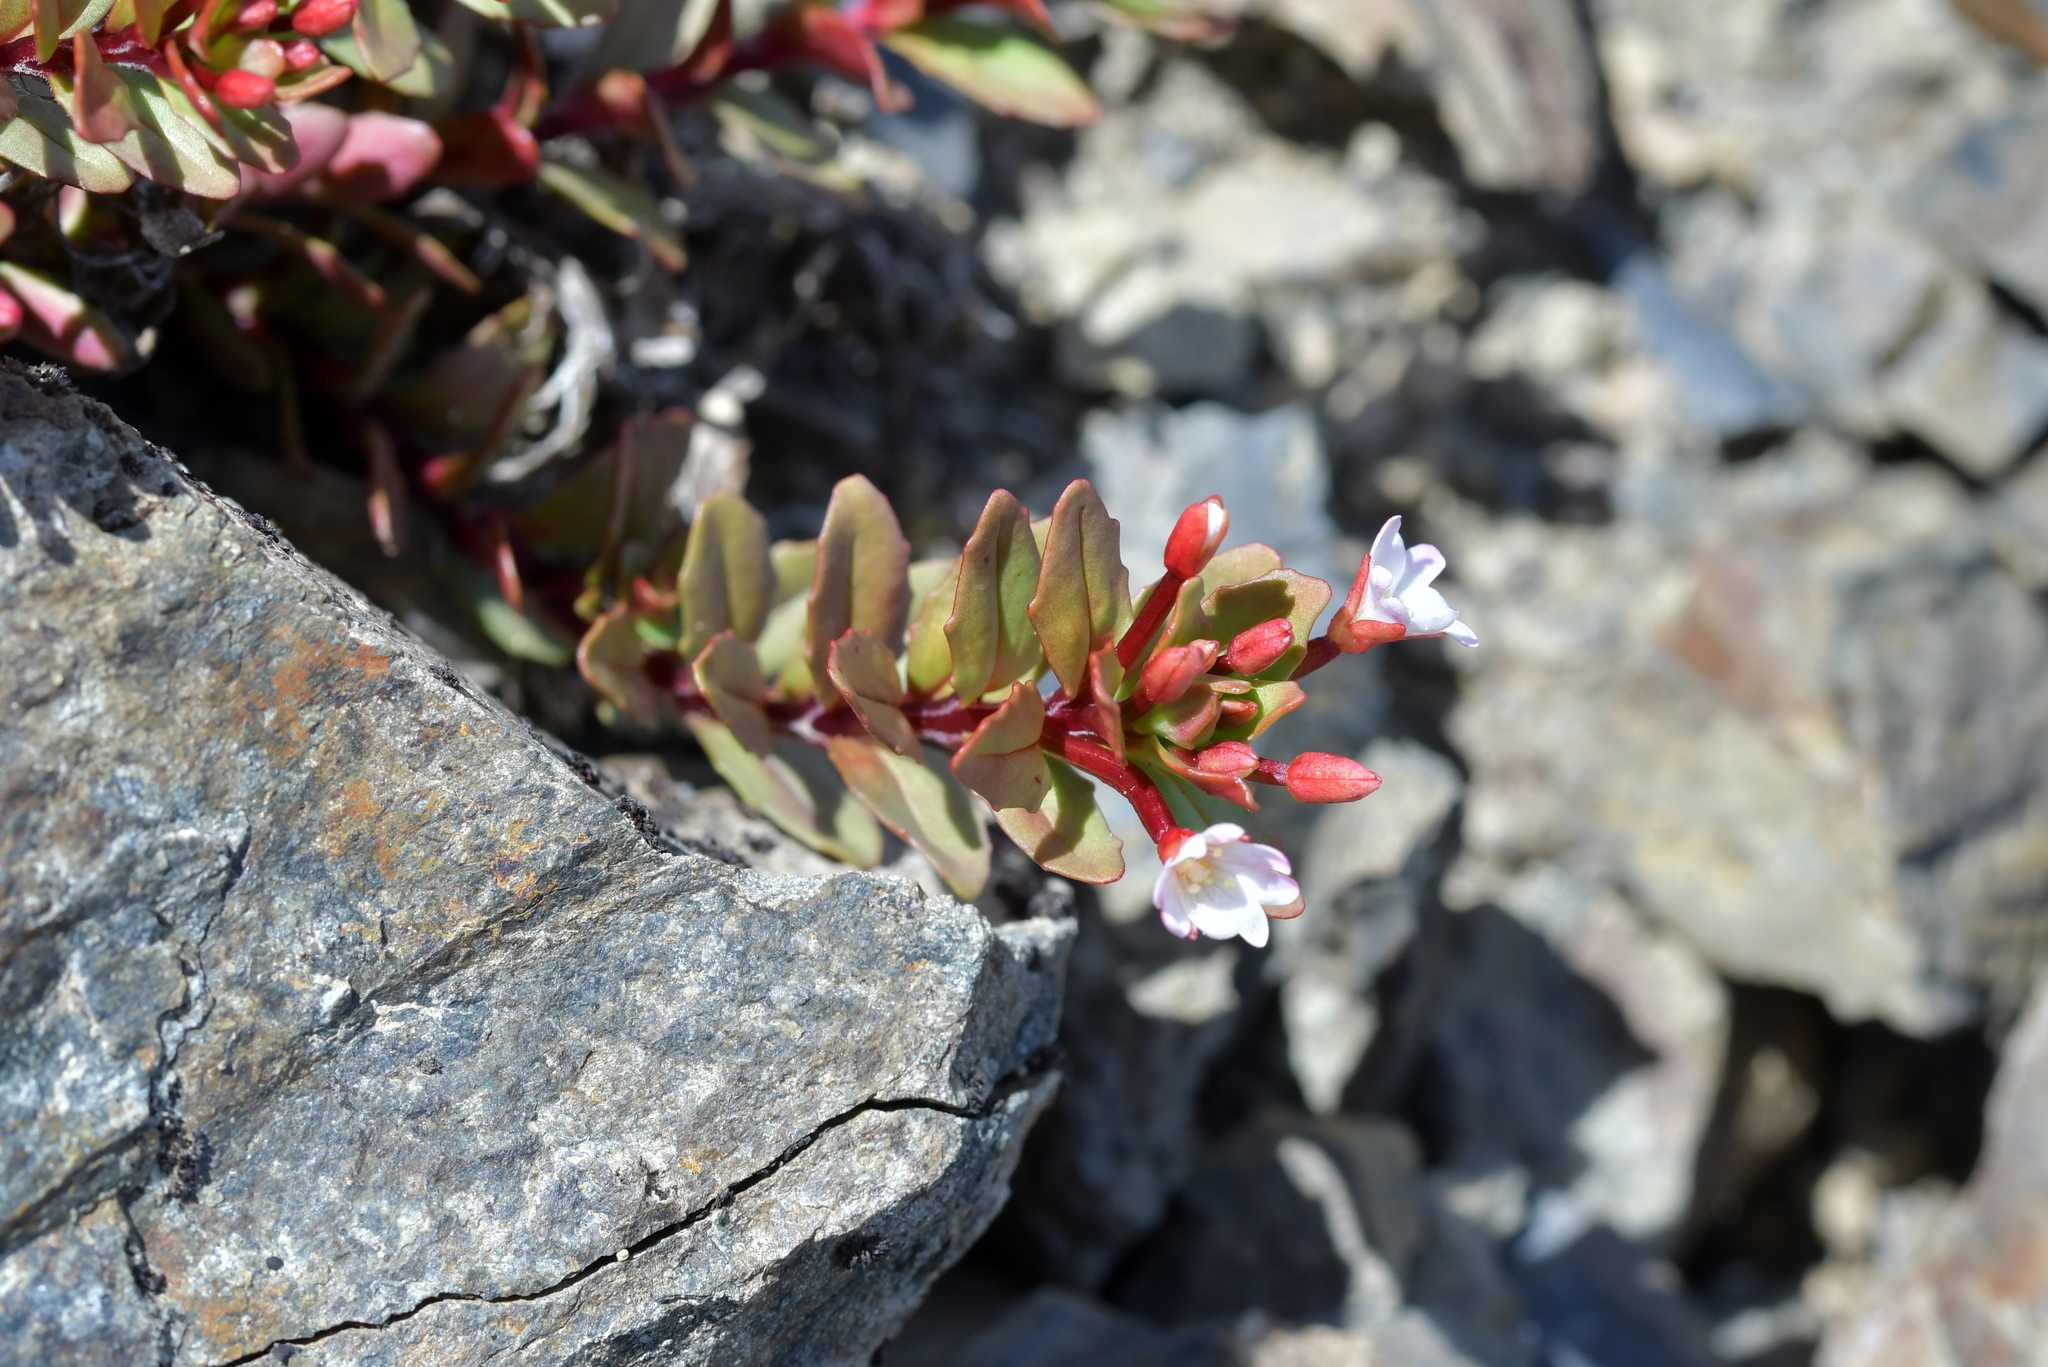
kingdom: Plantae
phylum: Tracheophyta
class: Magnoliopsida
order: Myrtales
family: Onagraceae
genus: Epilobium
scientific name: Epilobium porphyrium
